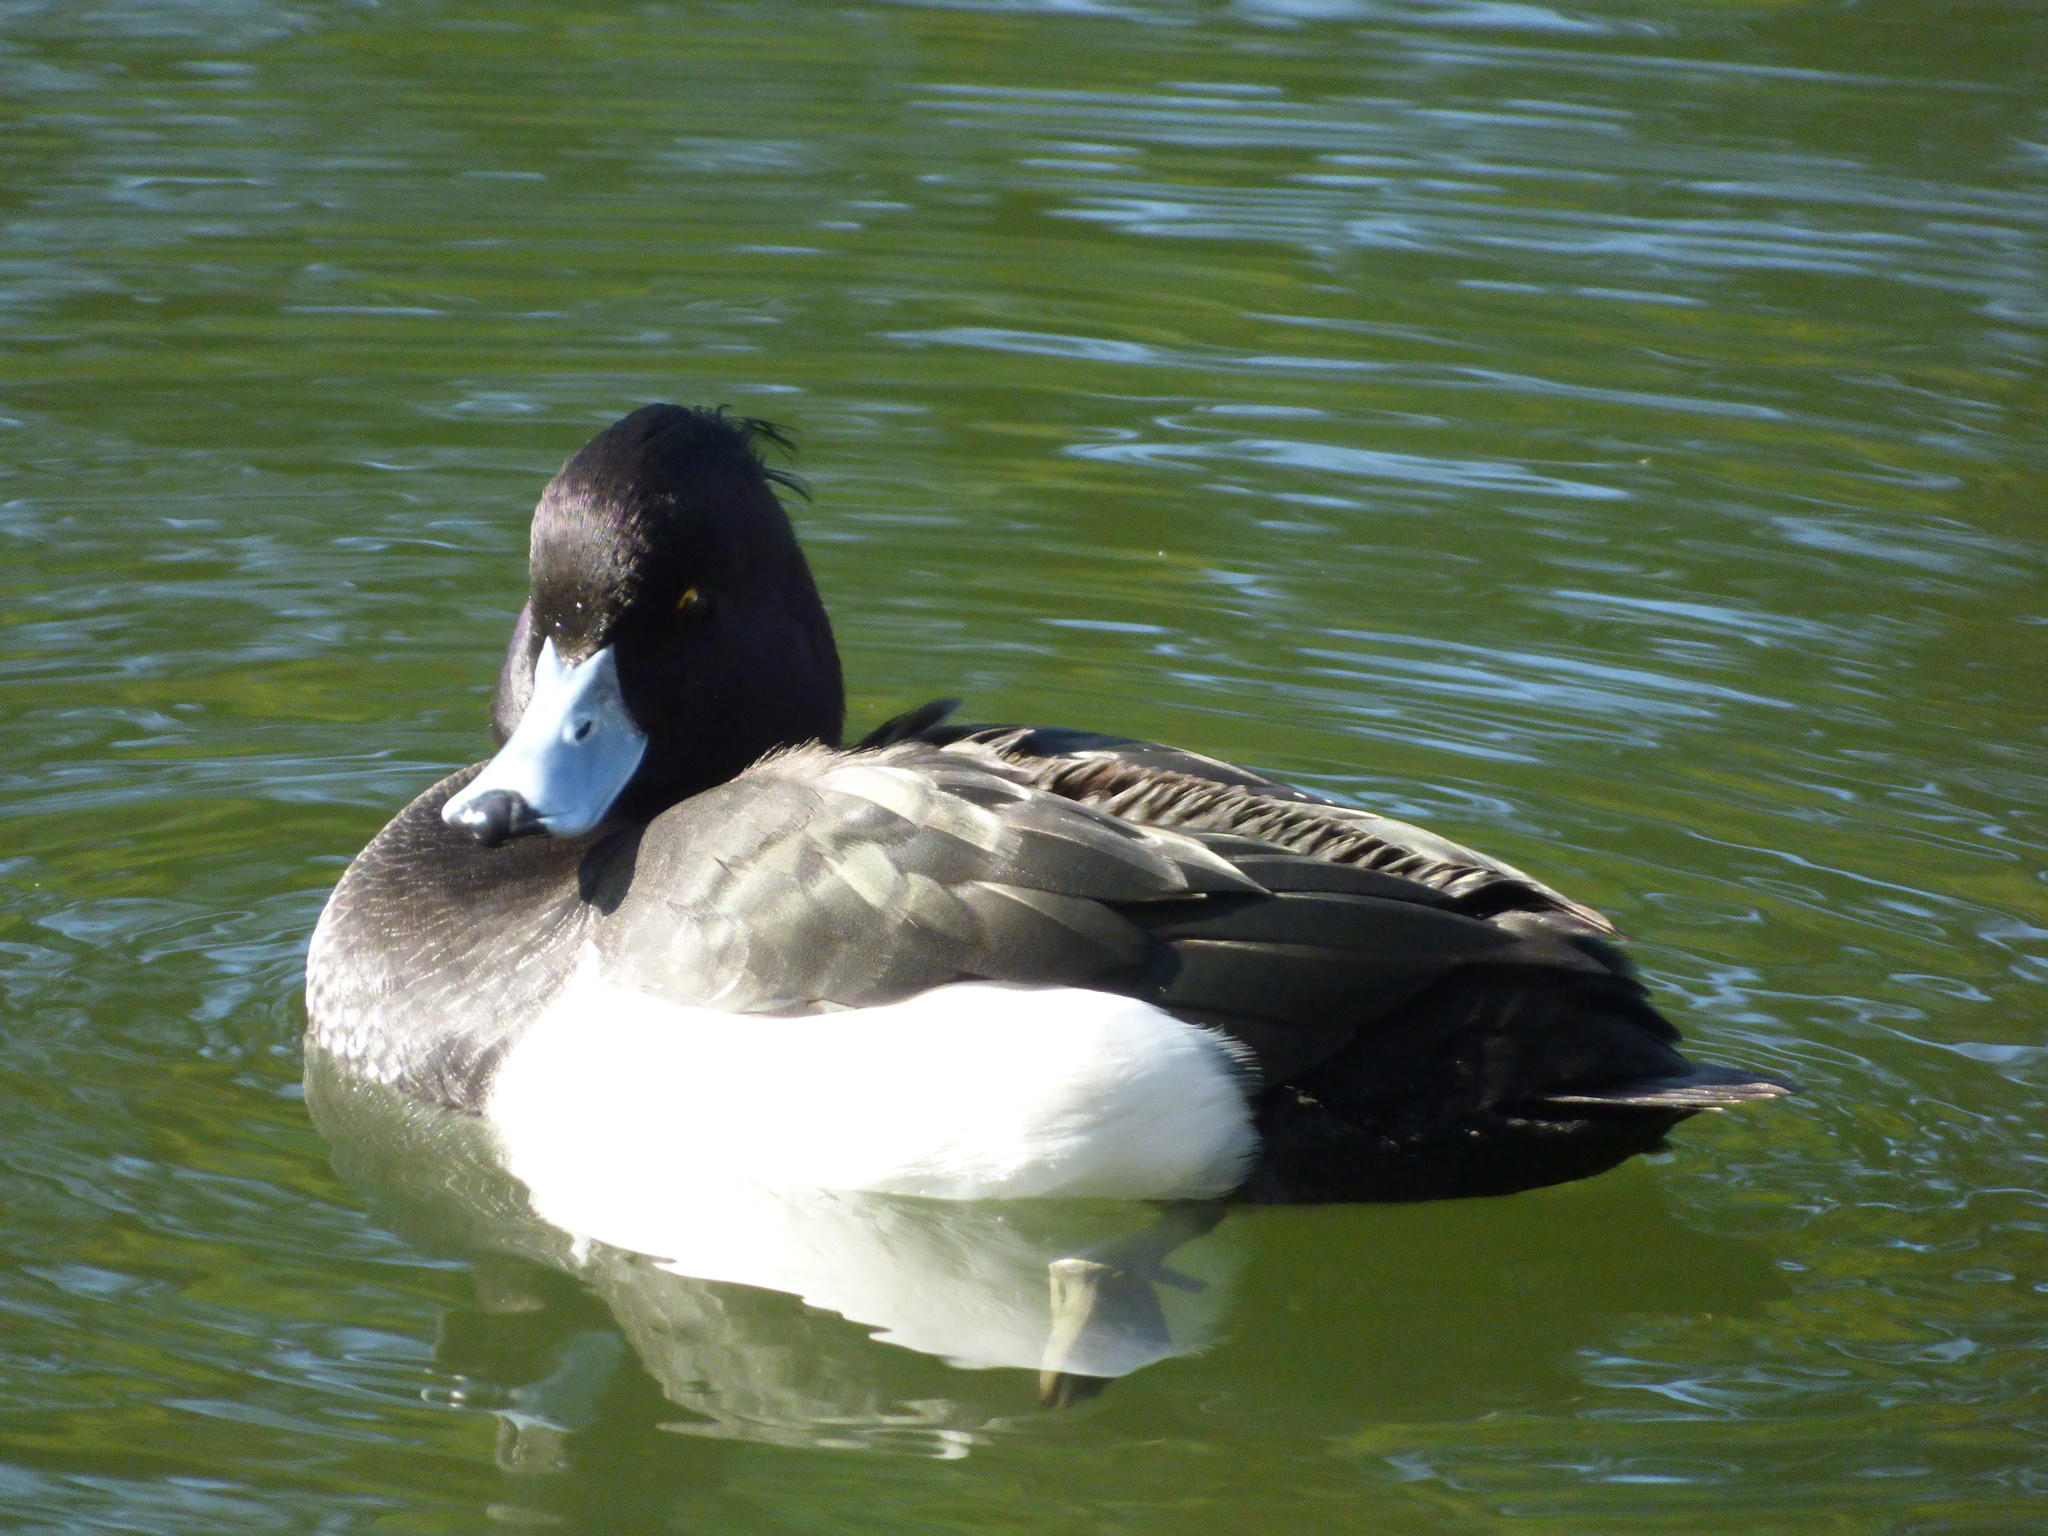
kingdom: Animalia
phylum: Chordata
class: Aves
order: Anseriformes
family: Anatidae
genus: Aythya
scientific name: Aythya fuligula
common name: Tufted duck
